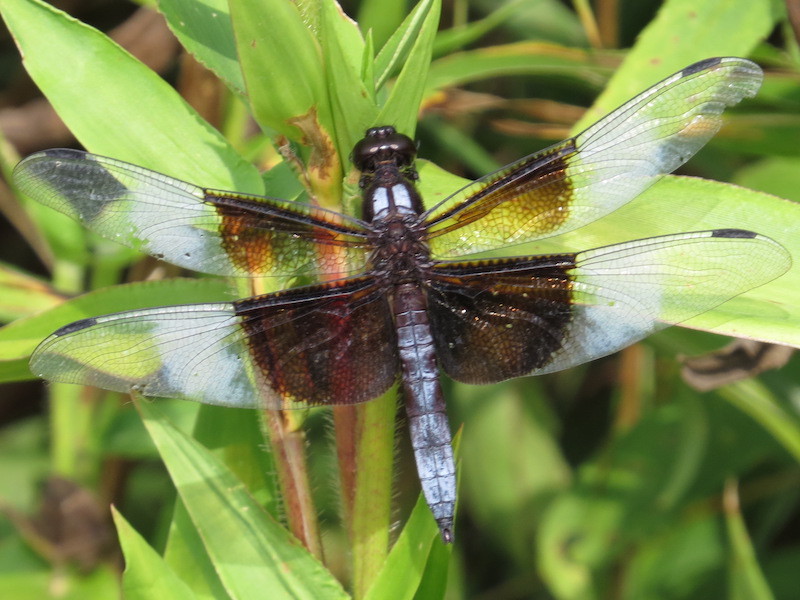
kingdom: Animalia
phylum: Arthropoda
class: Insecta
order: Odonata
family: Libellulidae
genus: Libellula
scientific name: Libellula luctuosa
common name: Widow skimmer
